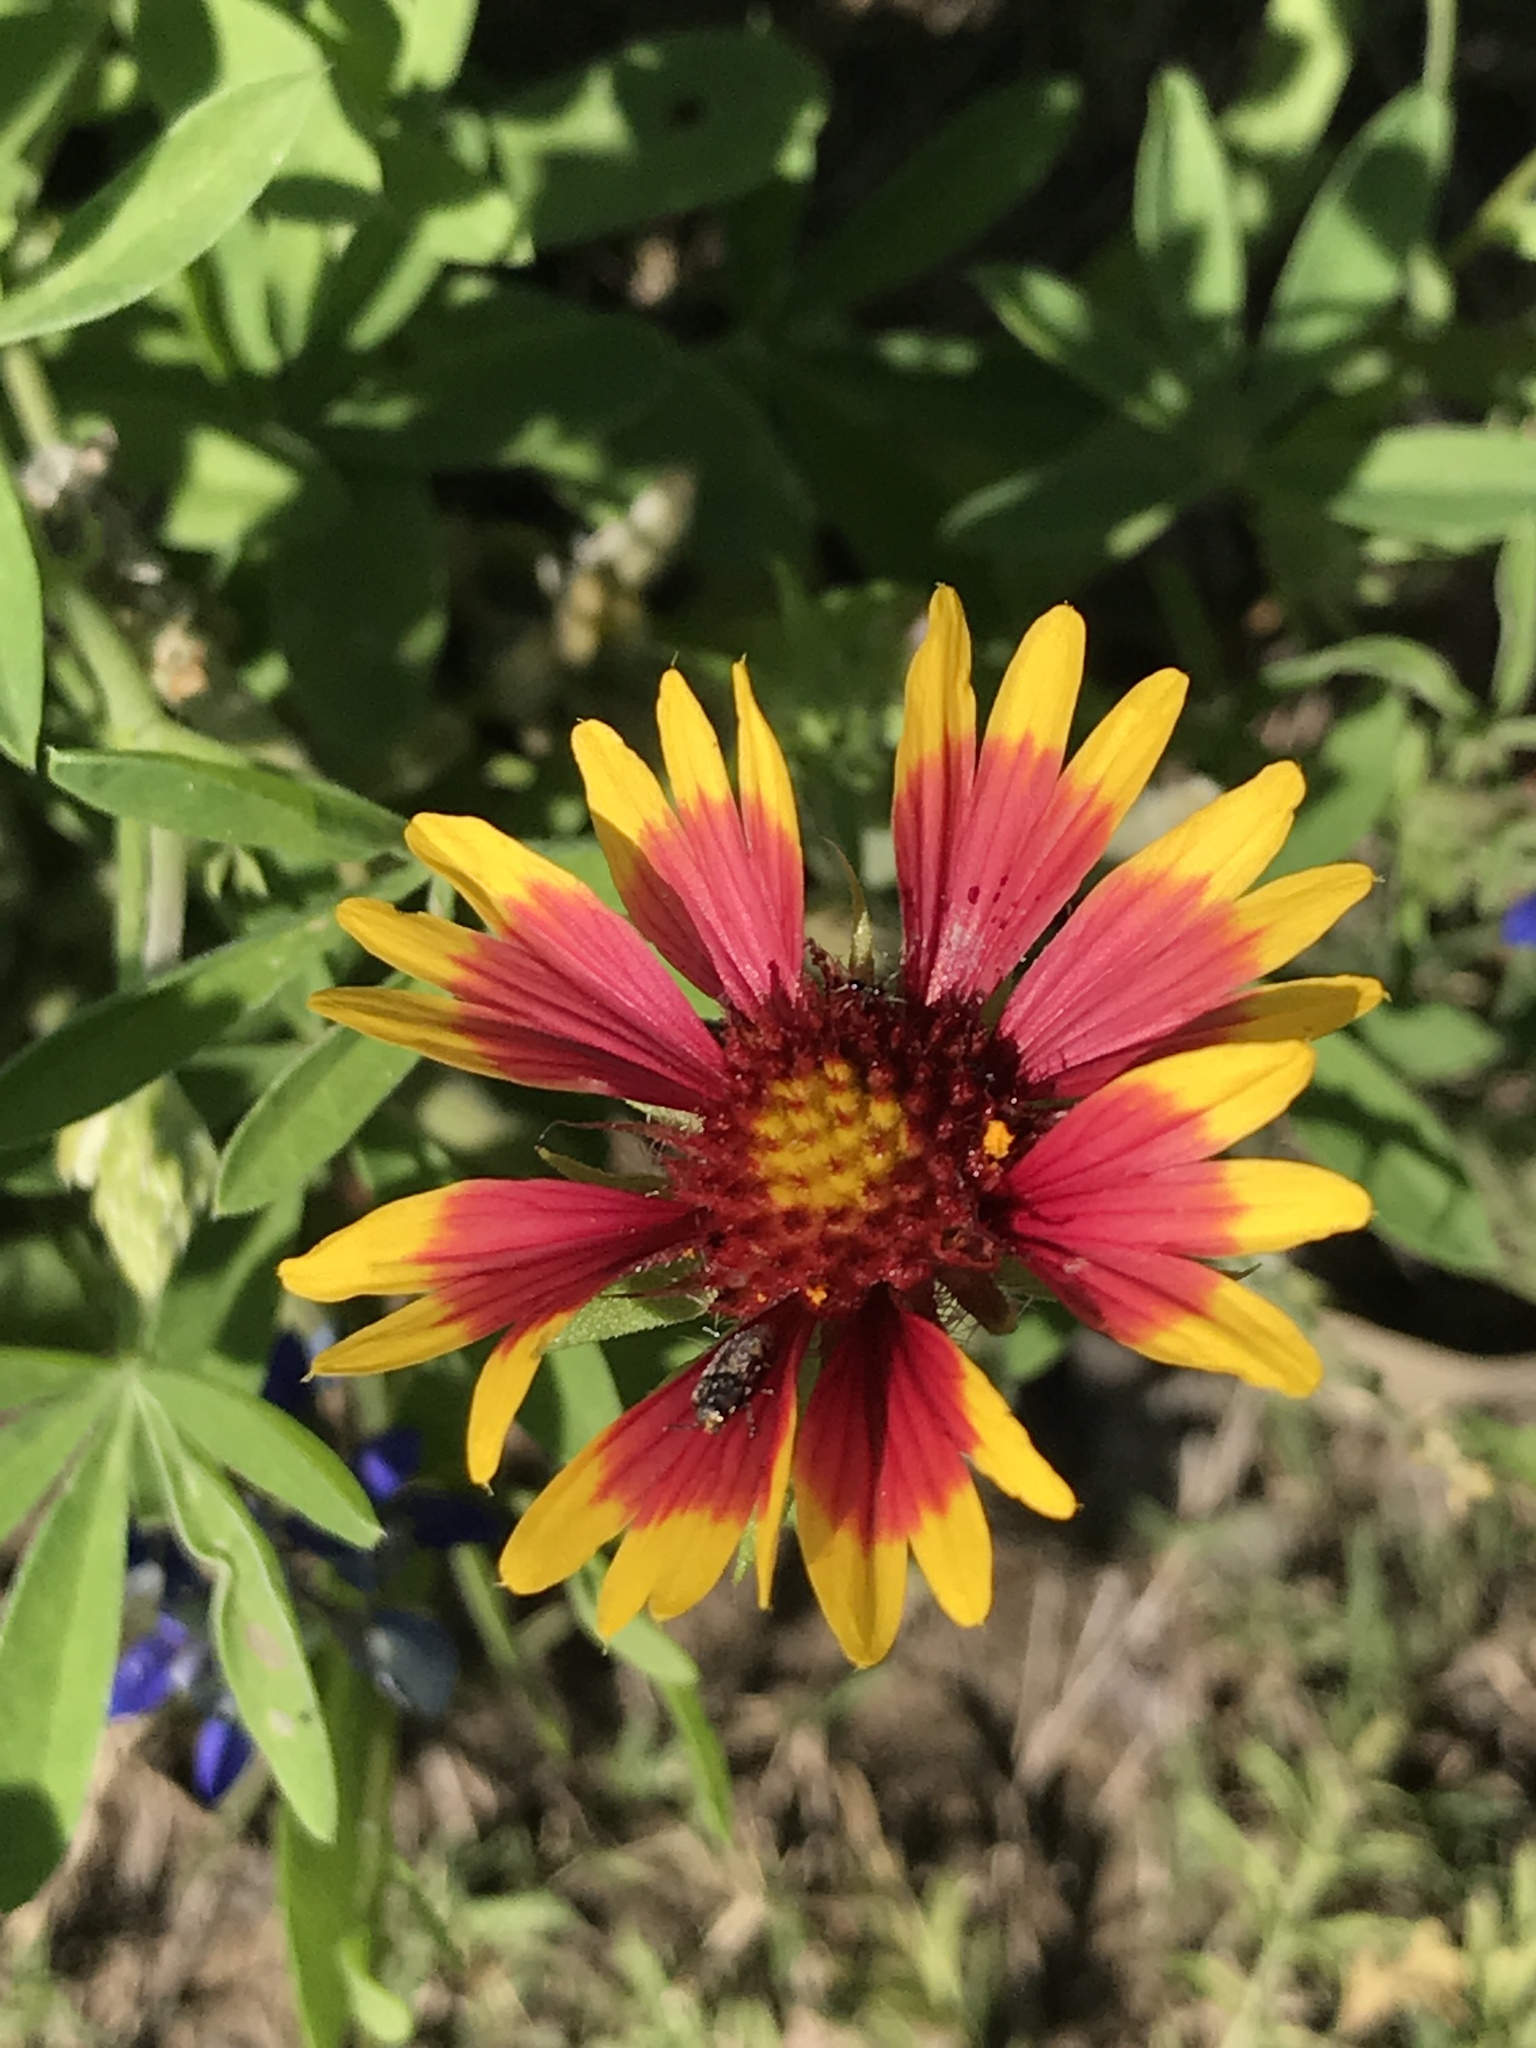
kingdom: Plantae
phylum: Tracheophyta
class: Magnoliopsida
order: Asterales
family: Asteraceae
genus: Gaillardia
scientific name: Gaillardia pulchella
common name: Firewheel
